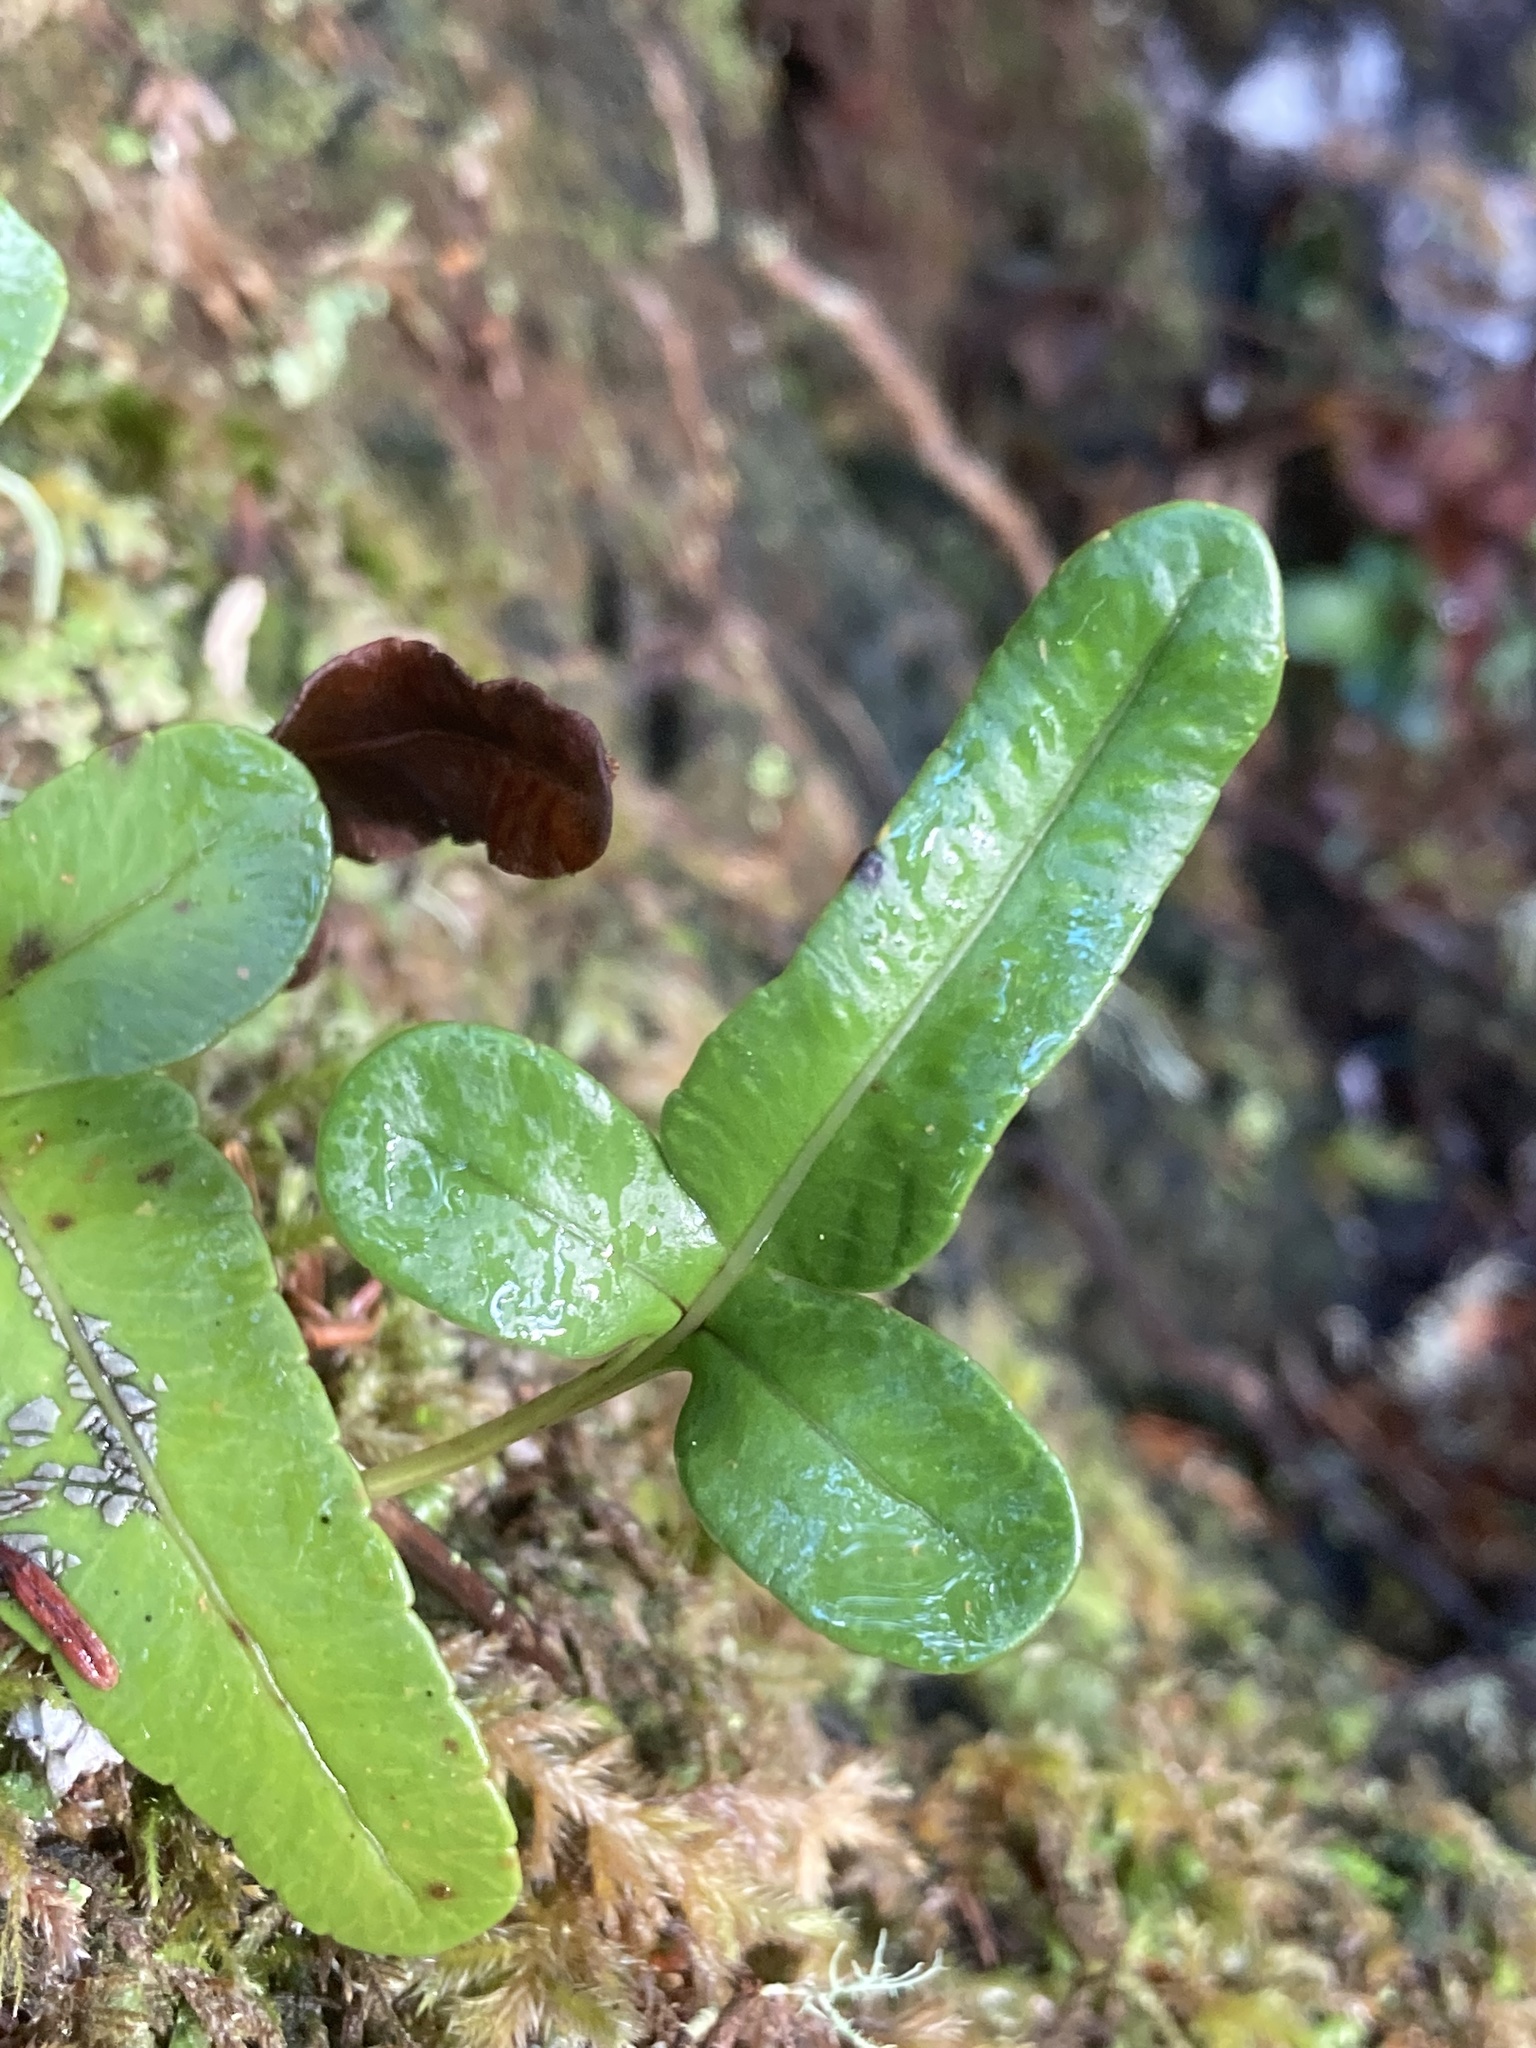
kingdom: Plantae
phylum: Tracheophyta
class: Polypodiopsida
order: Polypodiales
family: Polypodiaceae
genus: Polypodium
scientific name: Polypodium scouleri
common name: Scouler's polypody
